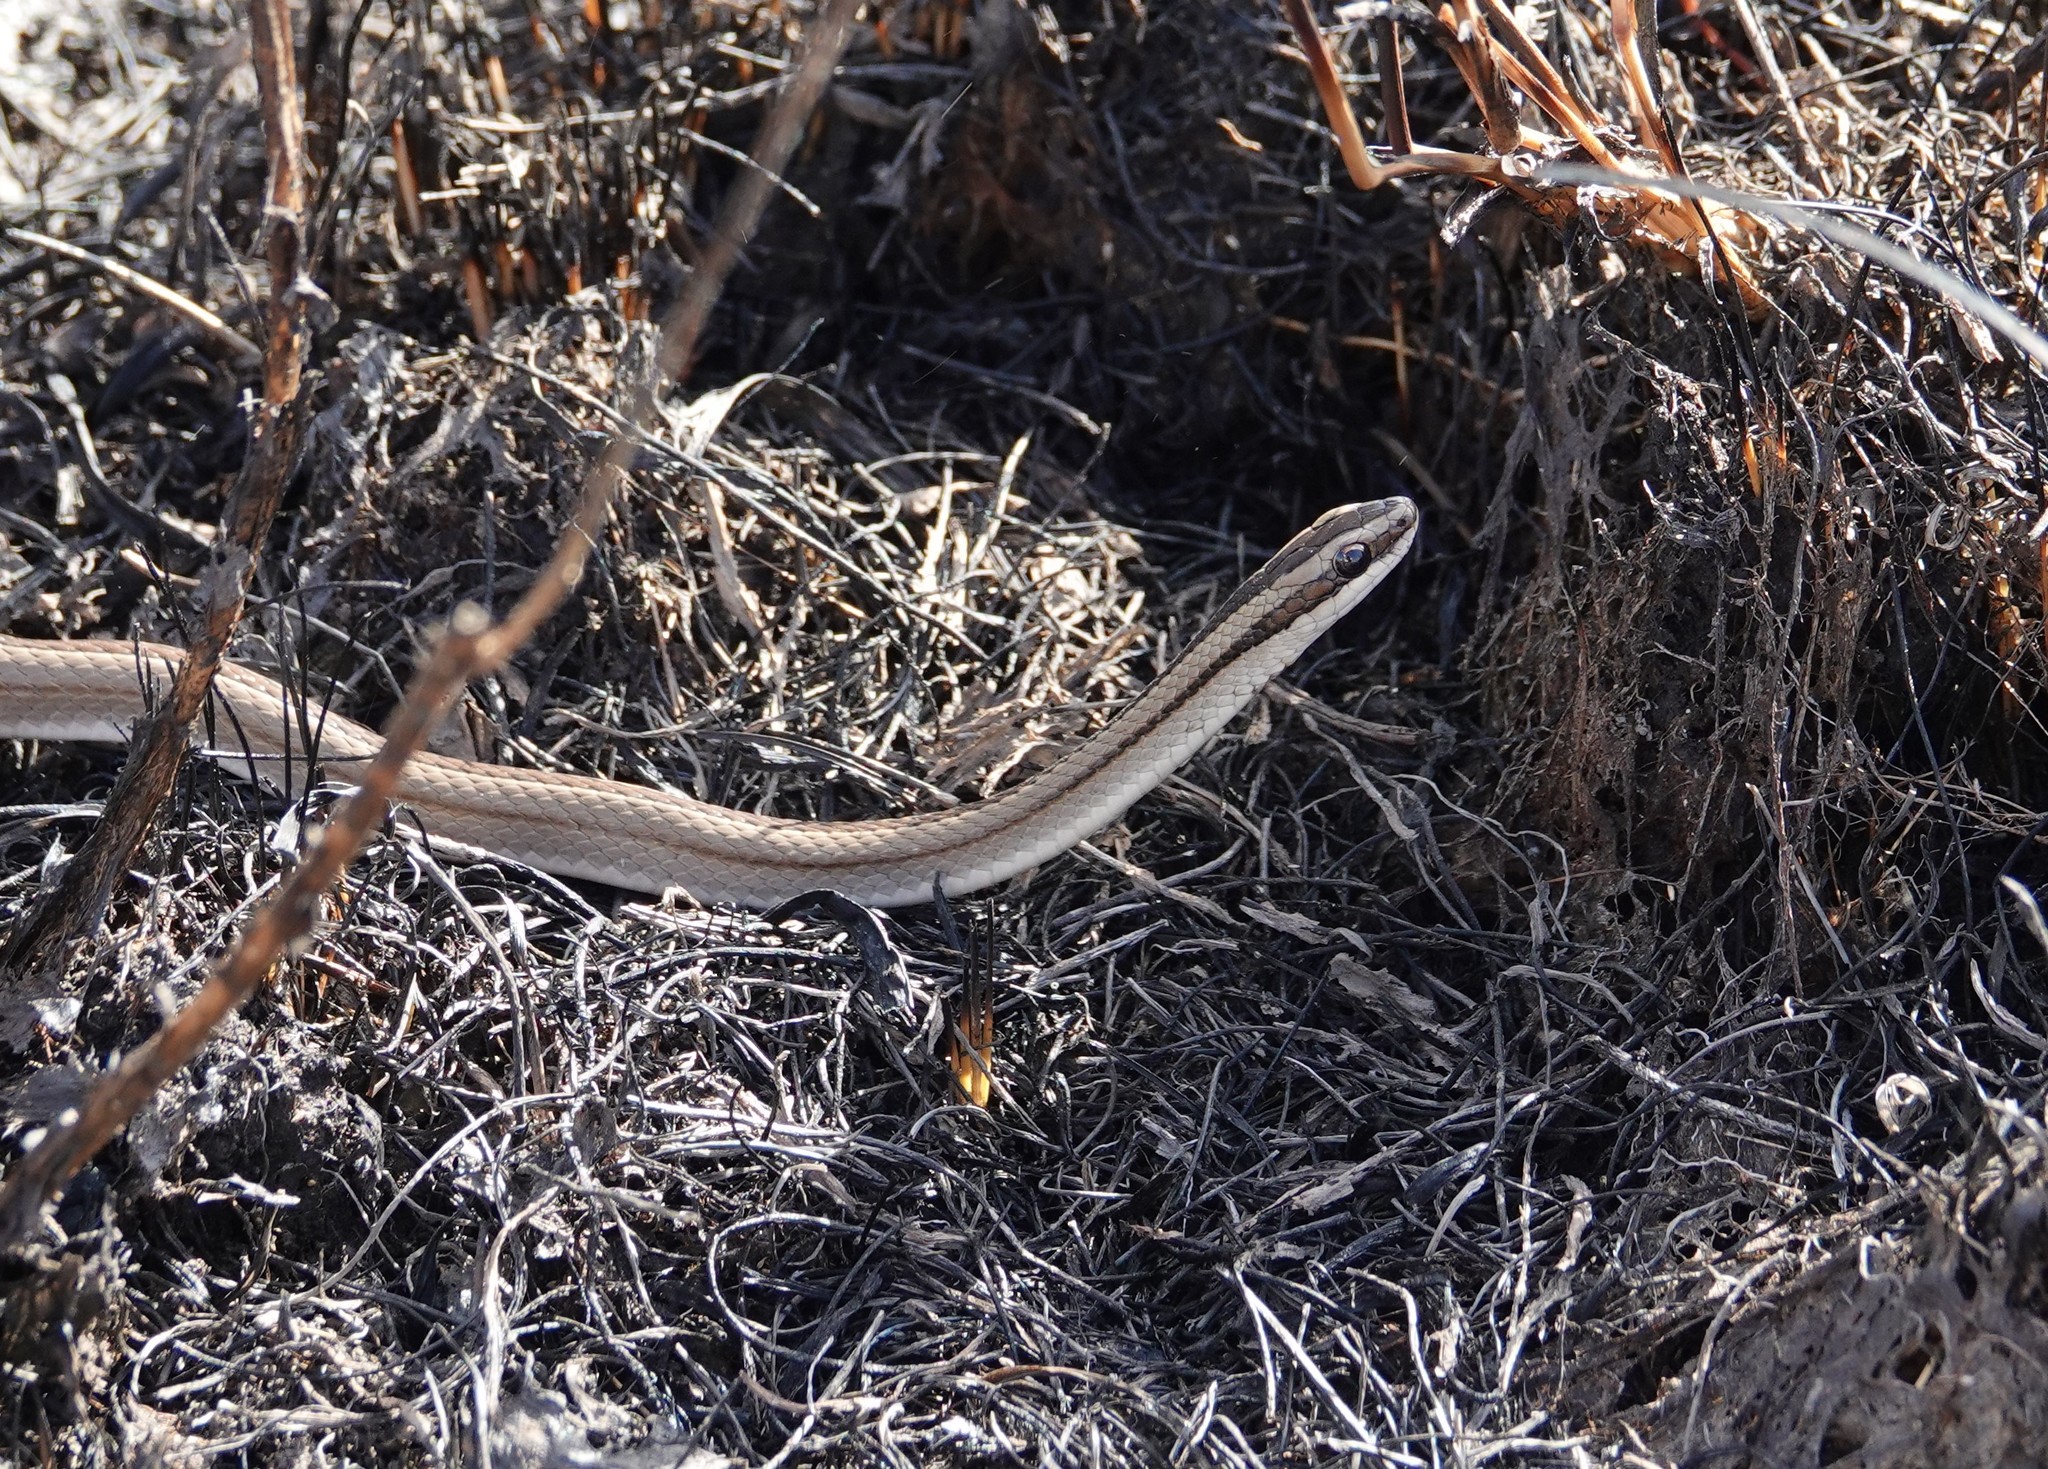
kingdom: Animalia
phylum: Chordata
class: Squamata
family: Colubridae
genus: Lygophis
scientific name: Lygophis lineatus
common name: Lined ground snake
